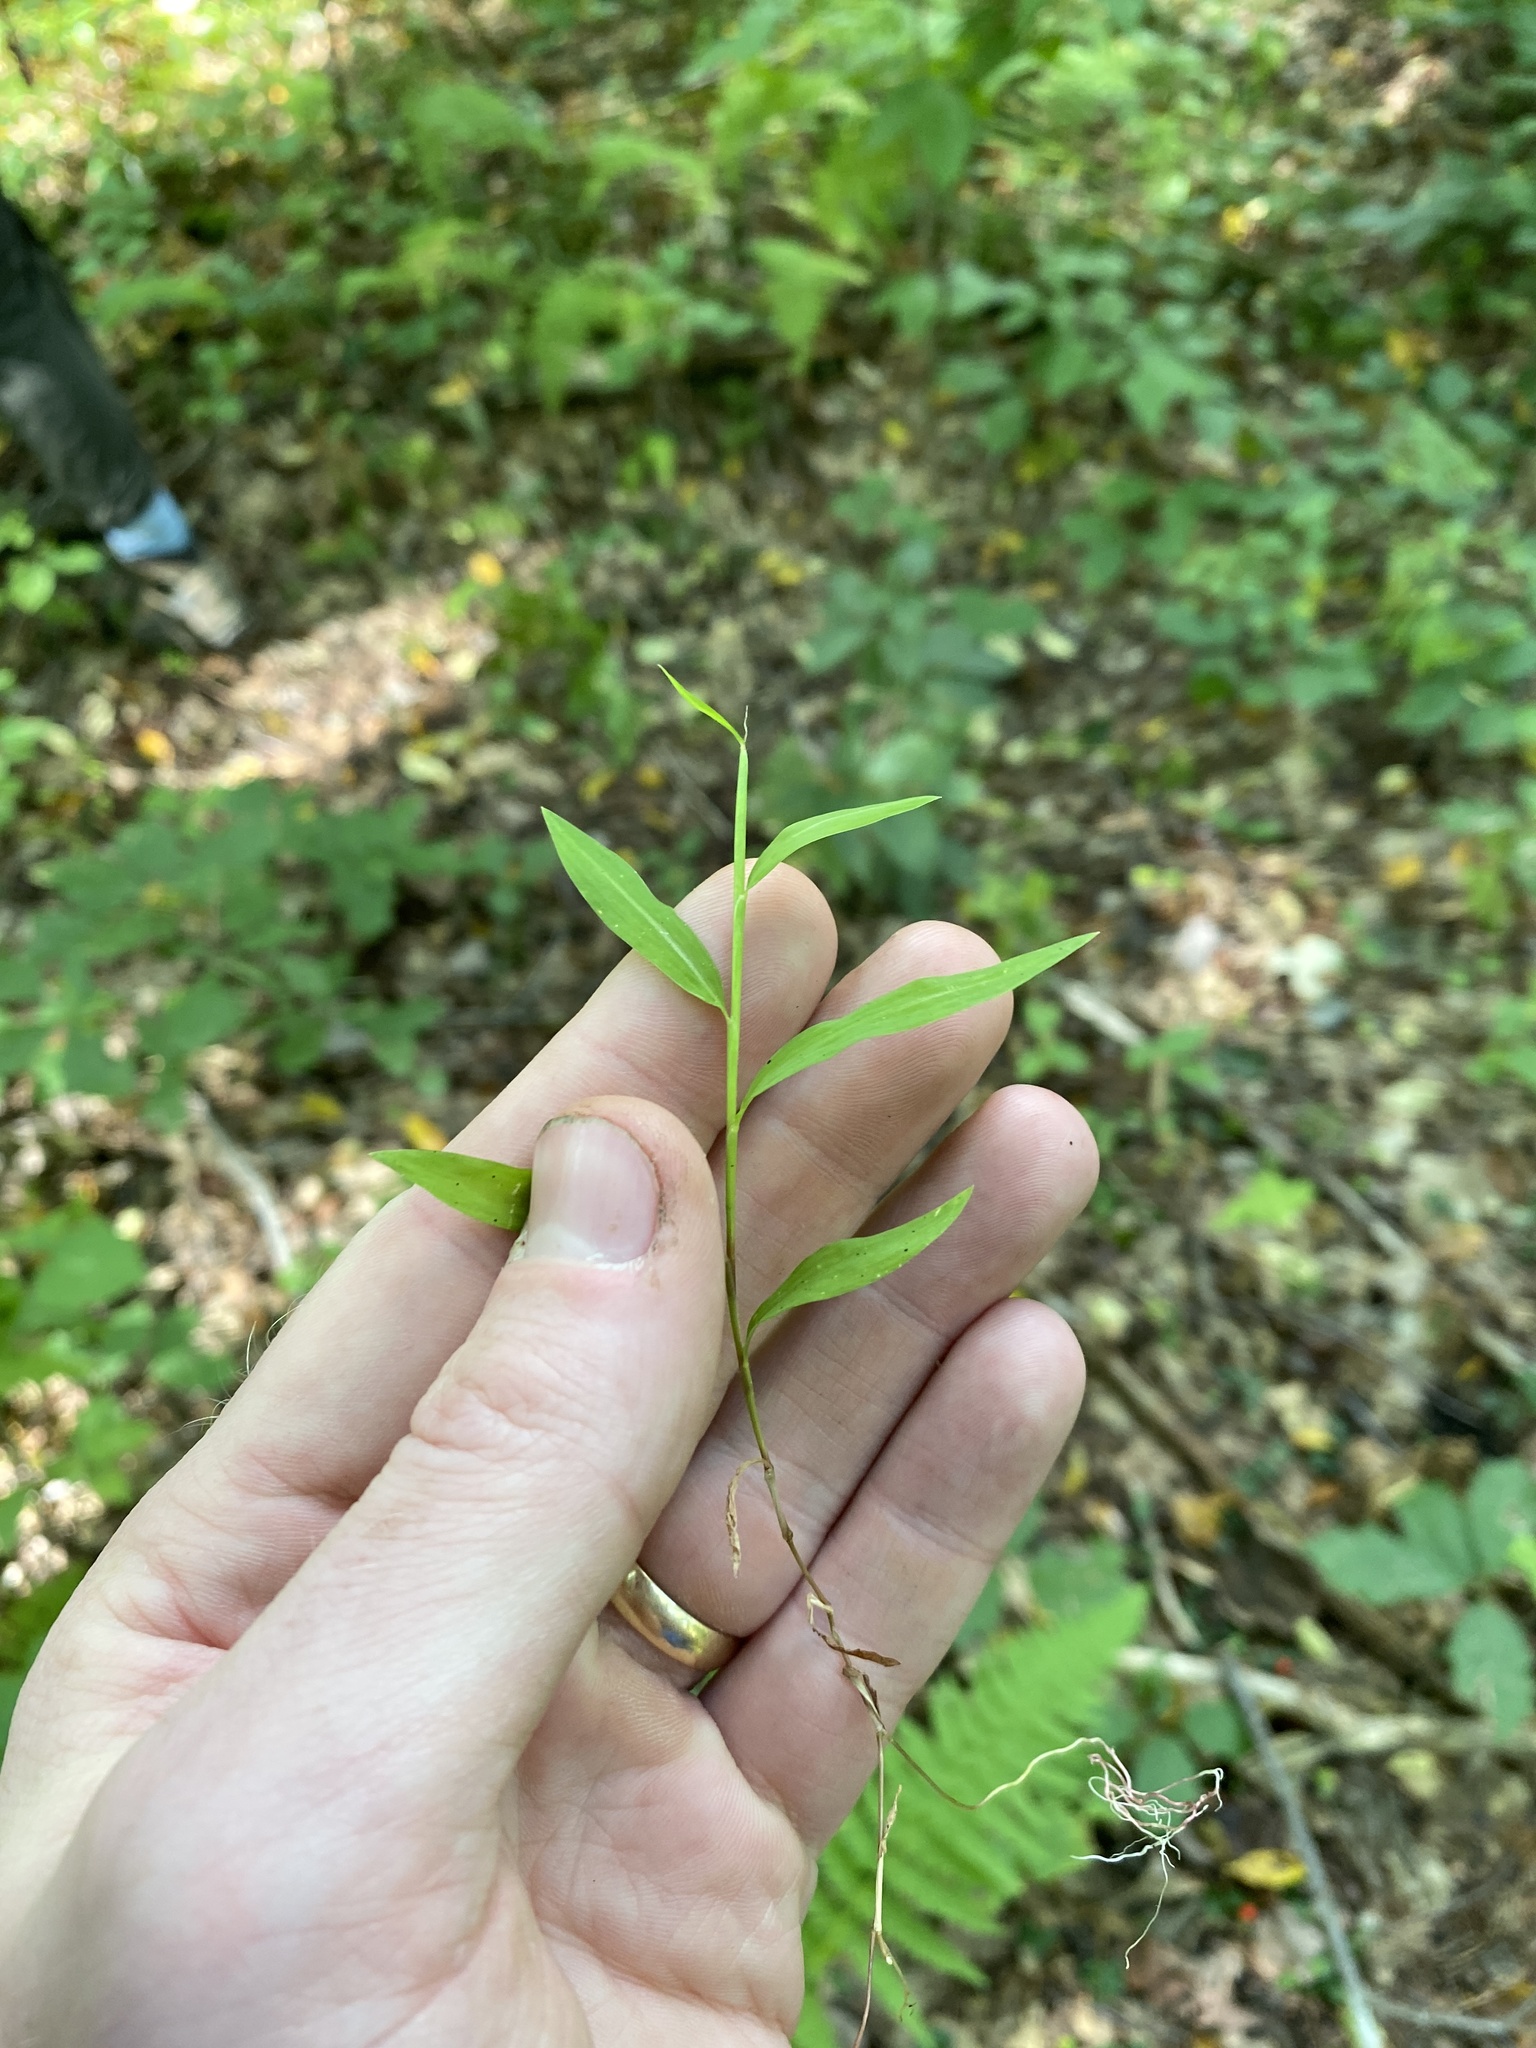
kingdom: Plantae
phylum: Tracheophyta
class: Liliopsida
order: Poales
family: Poaceae
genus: Microstegium
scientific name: Microstegium vimineum
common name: Japanese stiltgrass
